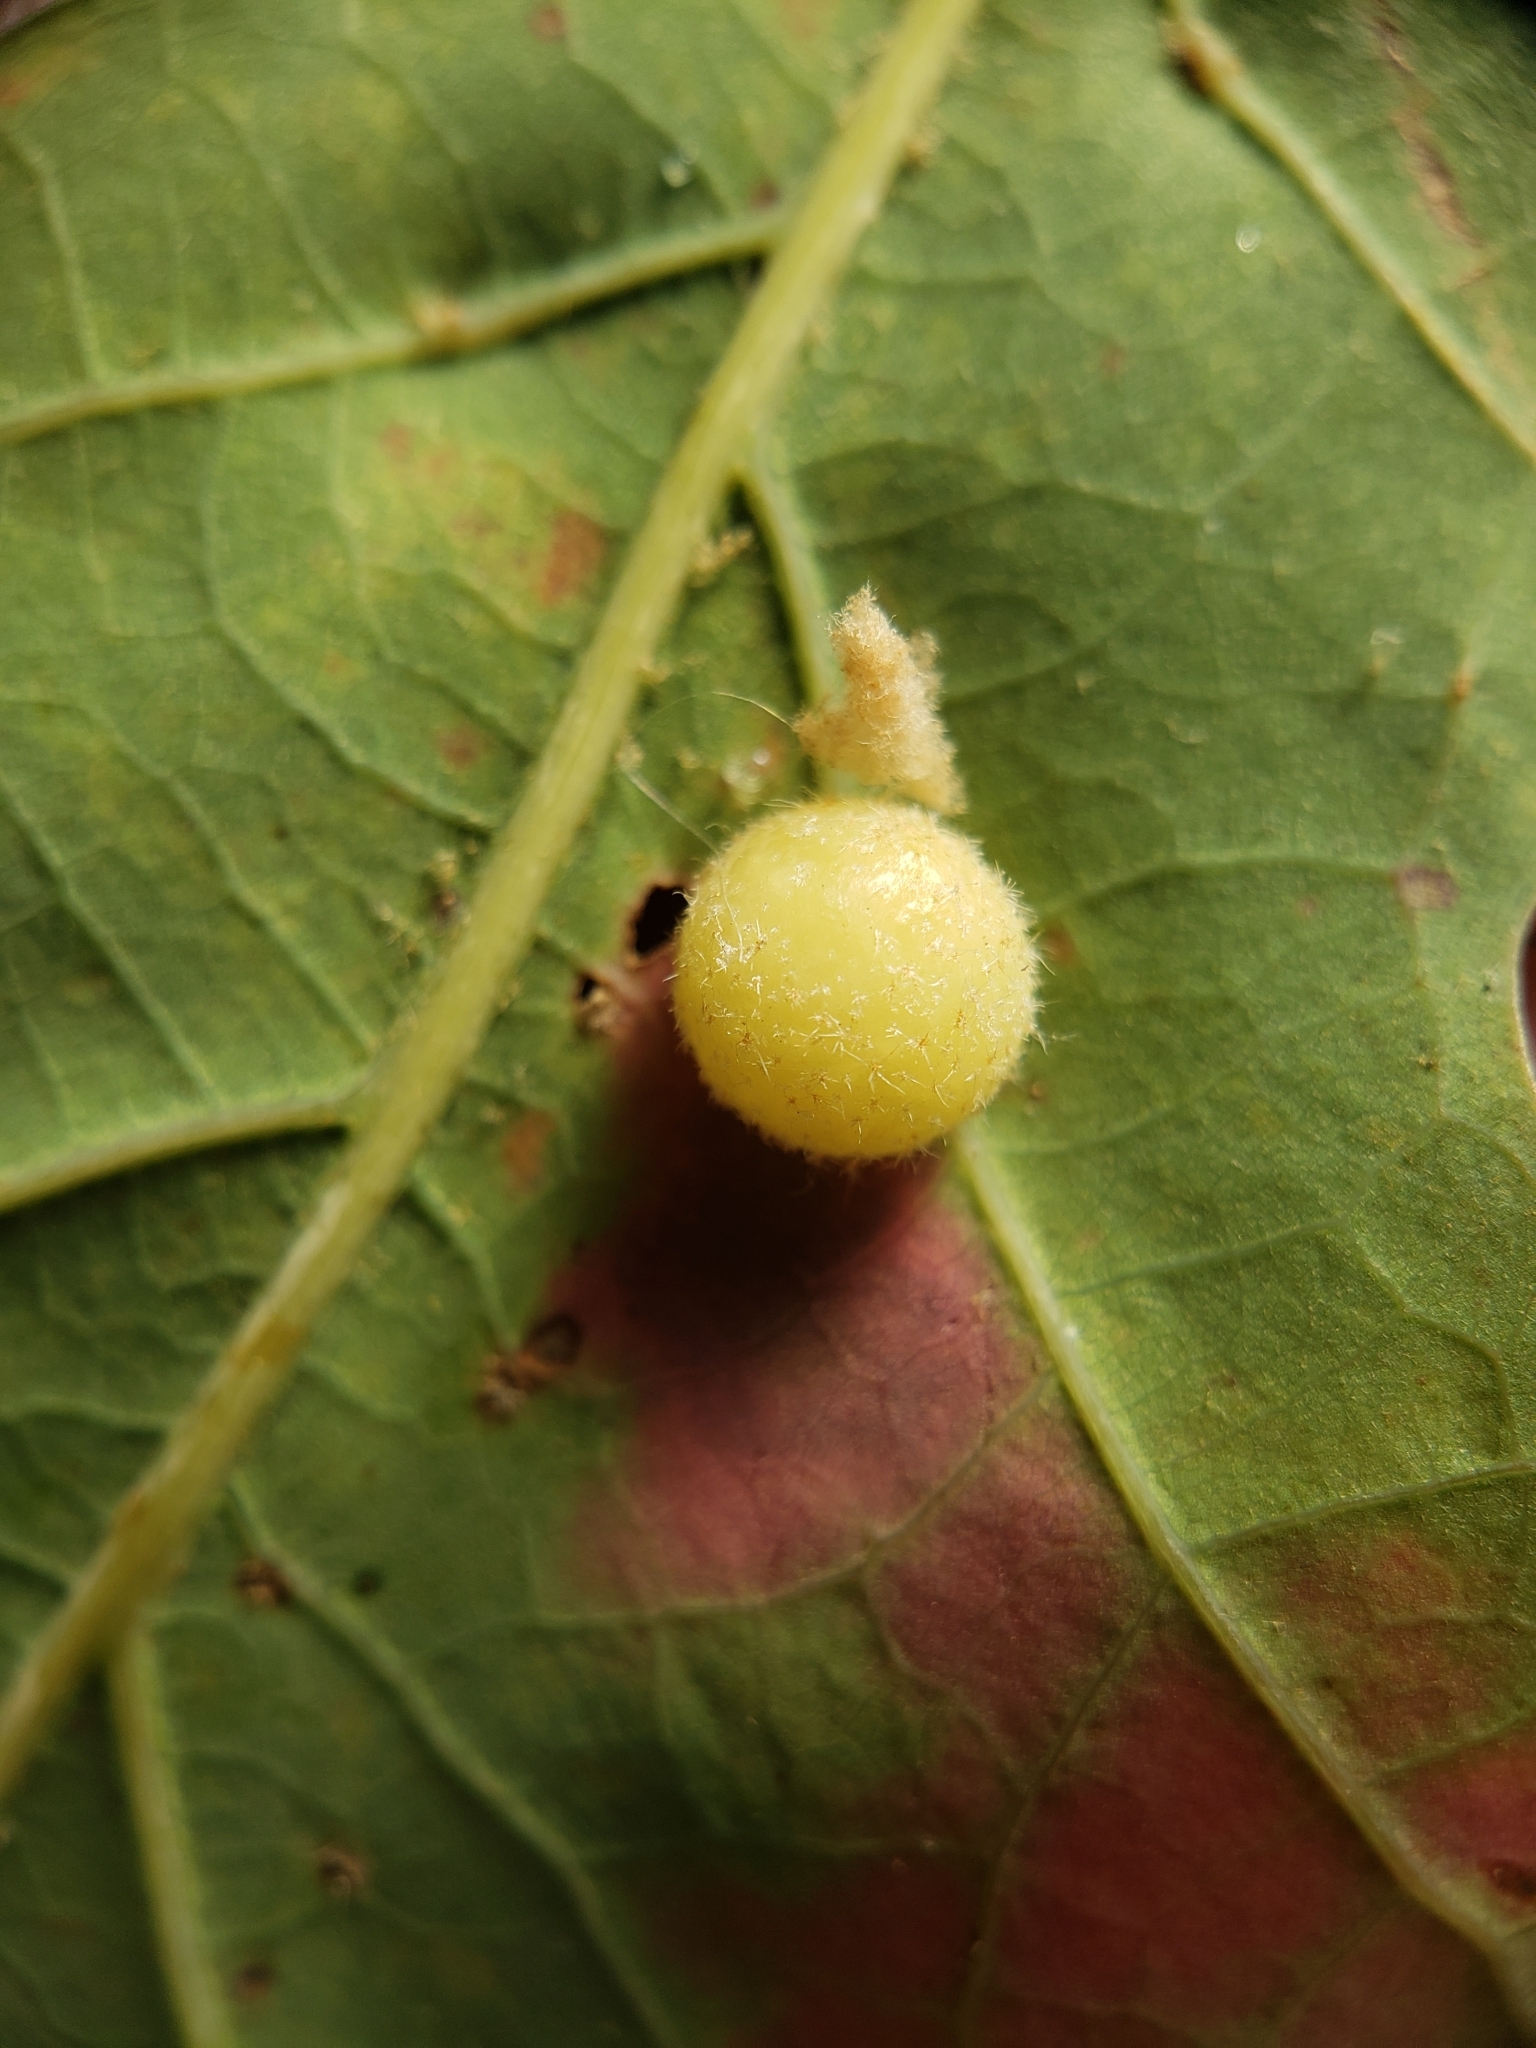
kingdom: Animalia
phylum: Arthropoda
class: Insecta
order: Hymenoptera
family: Cynipidae
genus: Philonix
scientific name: Philonix fulvicollis
